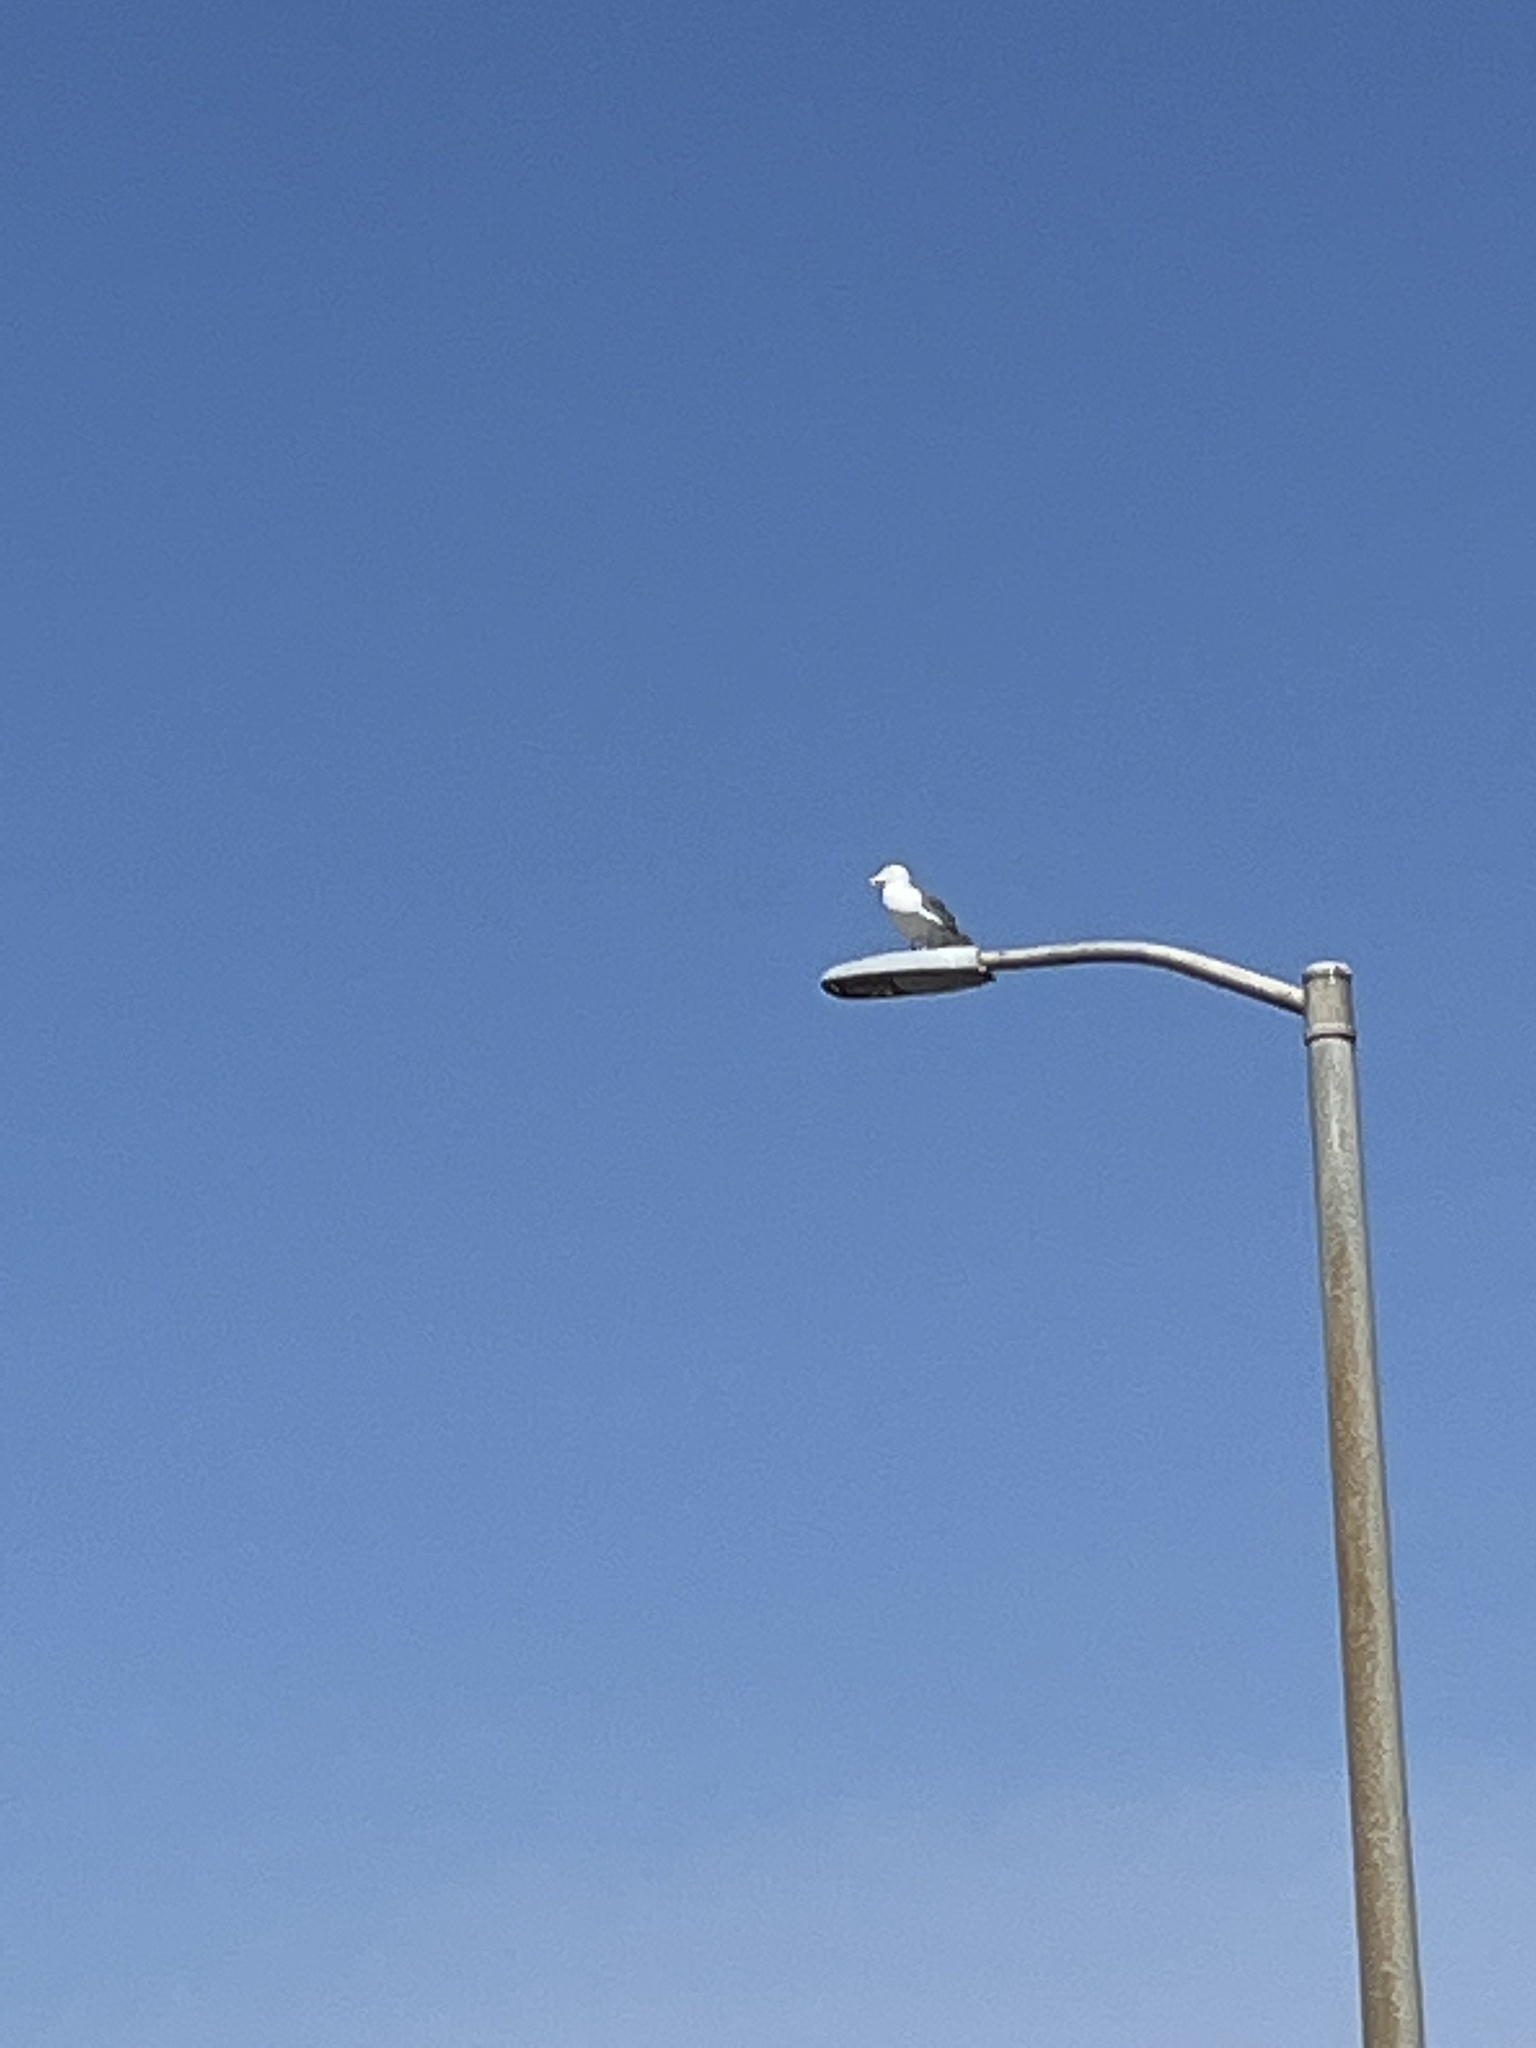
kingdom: Animalia
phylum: Chordata
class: Aves
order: Charadriiformes
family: Laridae
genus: Larus
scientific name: Larus occidentalis
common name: Western gull
